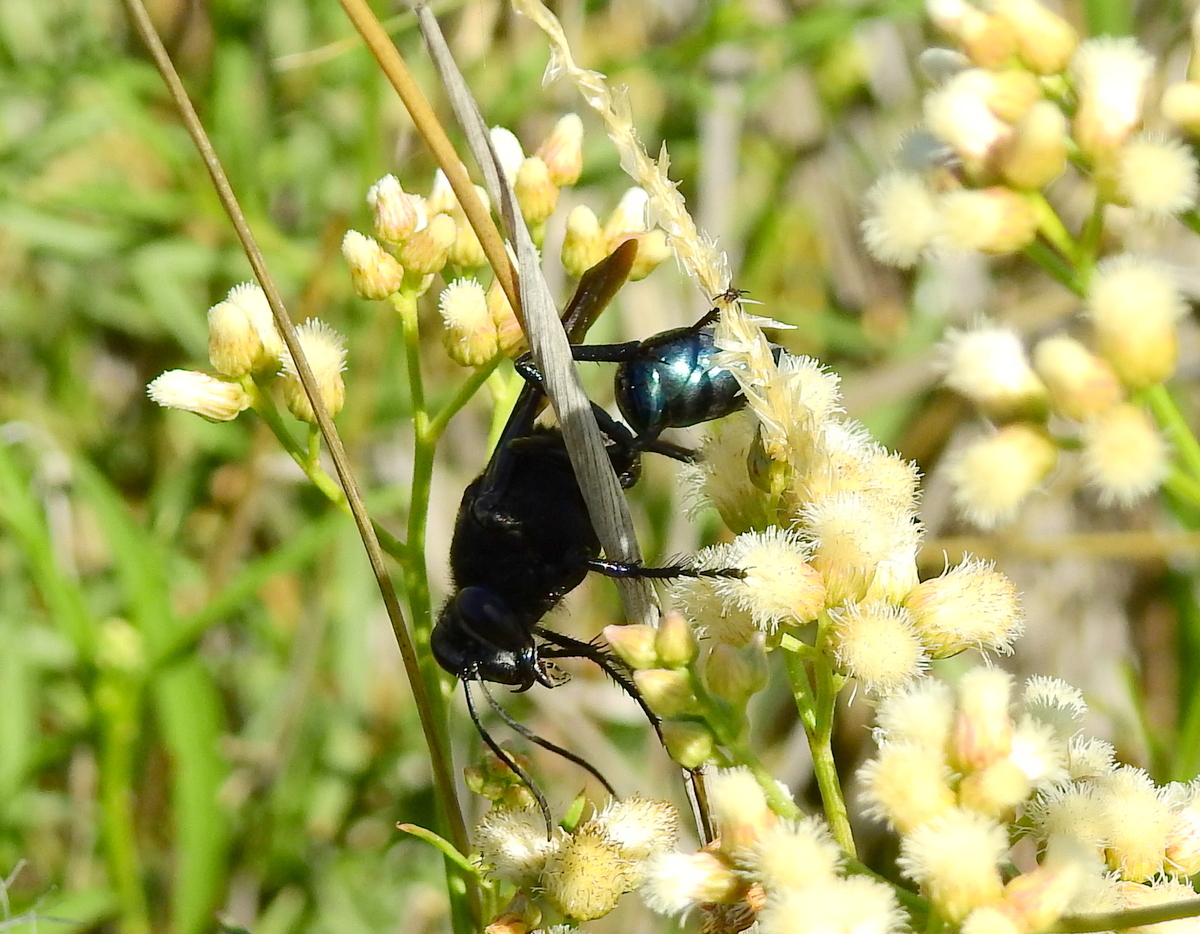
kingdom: Animalia
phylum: Arthropoda
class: Insecta
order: Hymenoptera
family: Sphecidae
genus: Stangeella
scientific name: Stangeella cyaniventris
